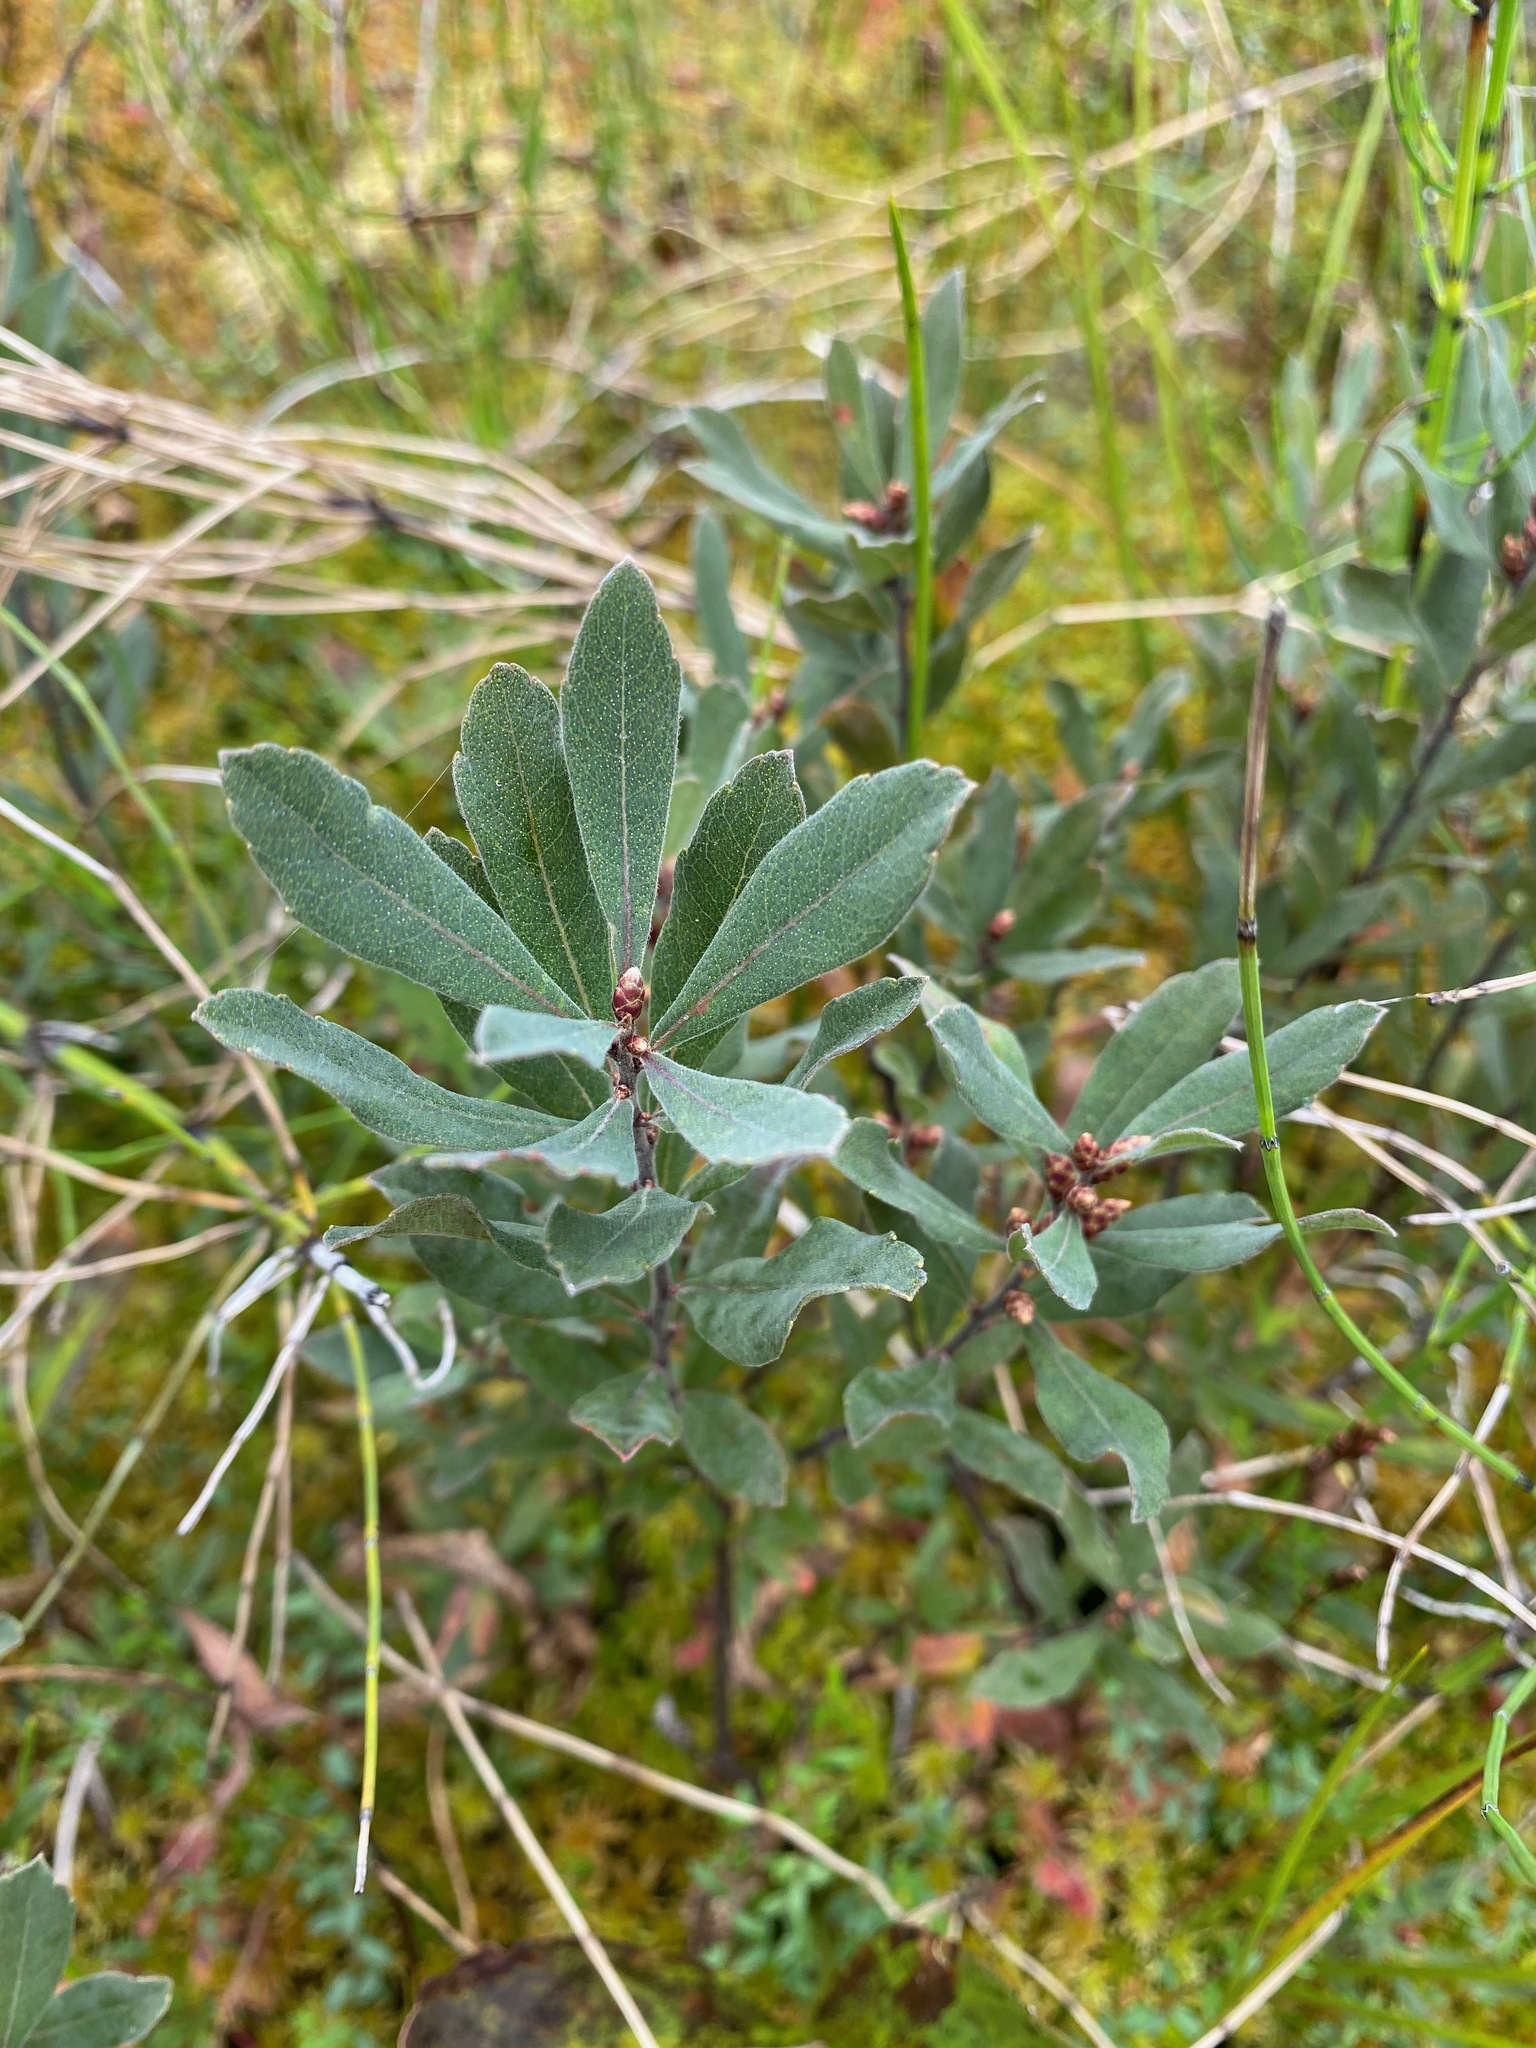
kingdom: Plantae
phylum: Tracheophyta
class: Magnoliopsida
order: Fagales
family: Myricaceae
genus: Myrica
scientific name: Myrica gale
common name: Sweet gale
